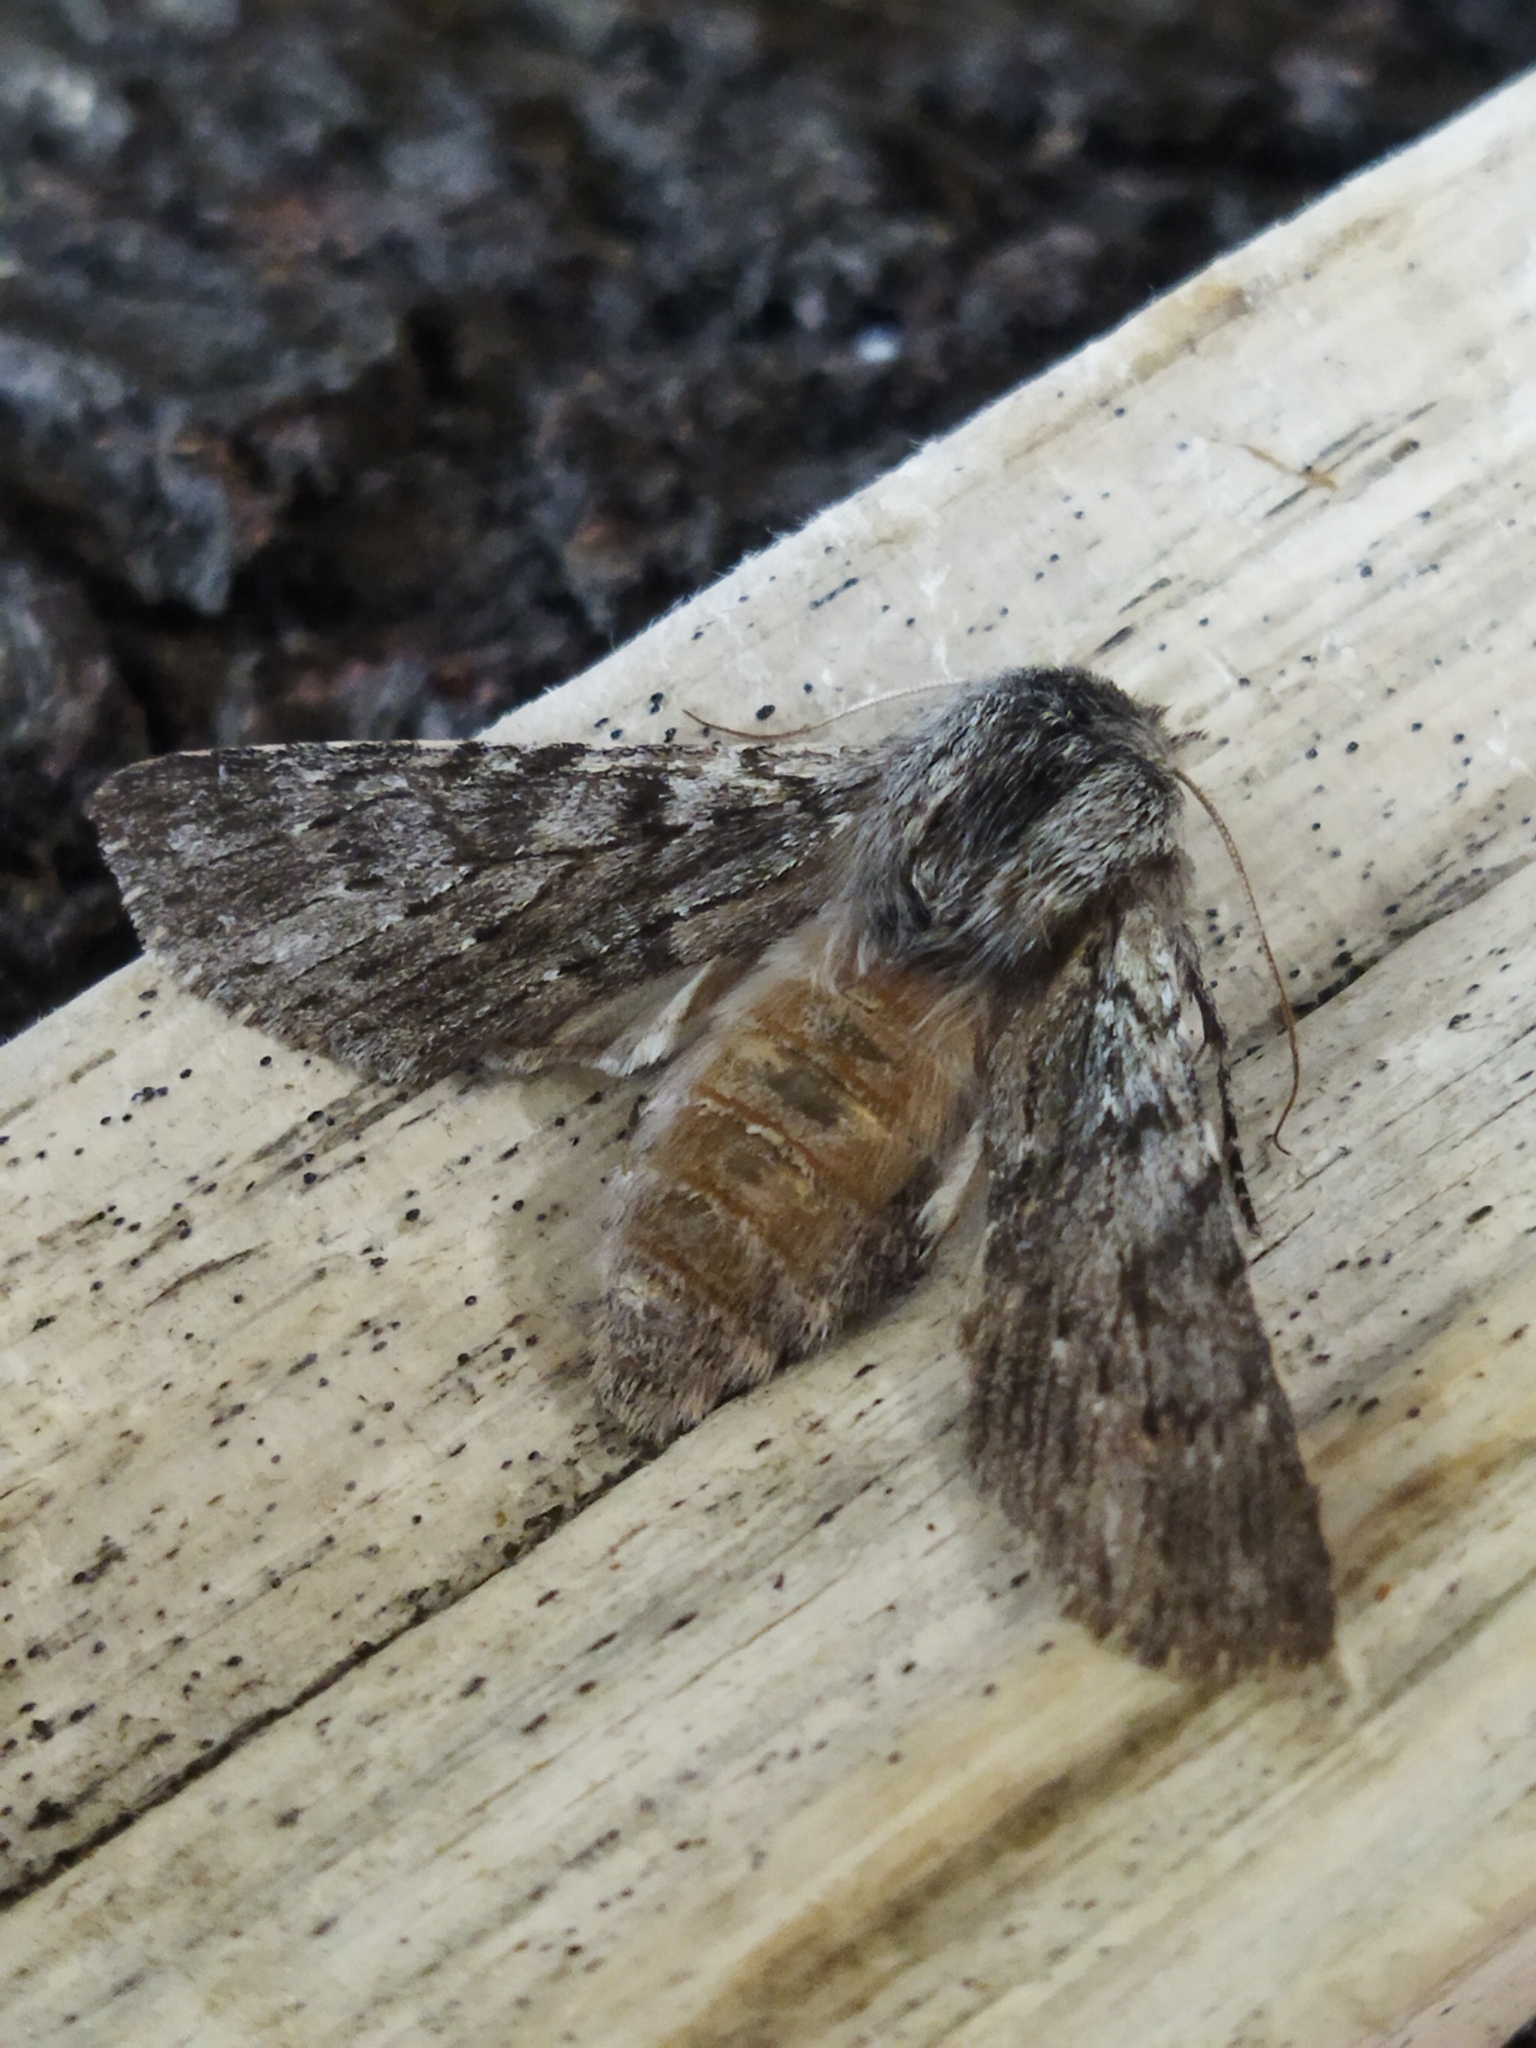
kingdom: Animalia
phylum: Arthropoda
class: Insecta
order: Lepidoptera
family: Notodontidae
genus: Dicranura
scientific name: Dicranura ulmi
